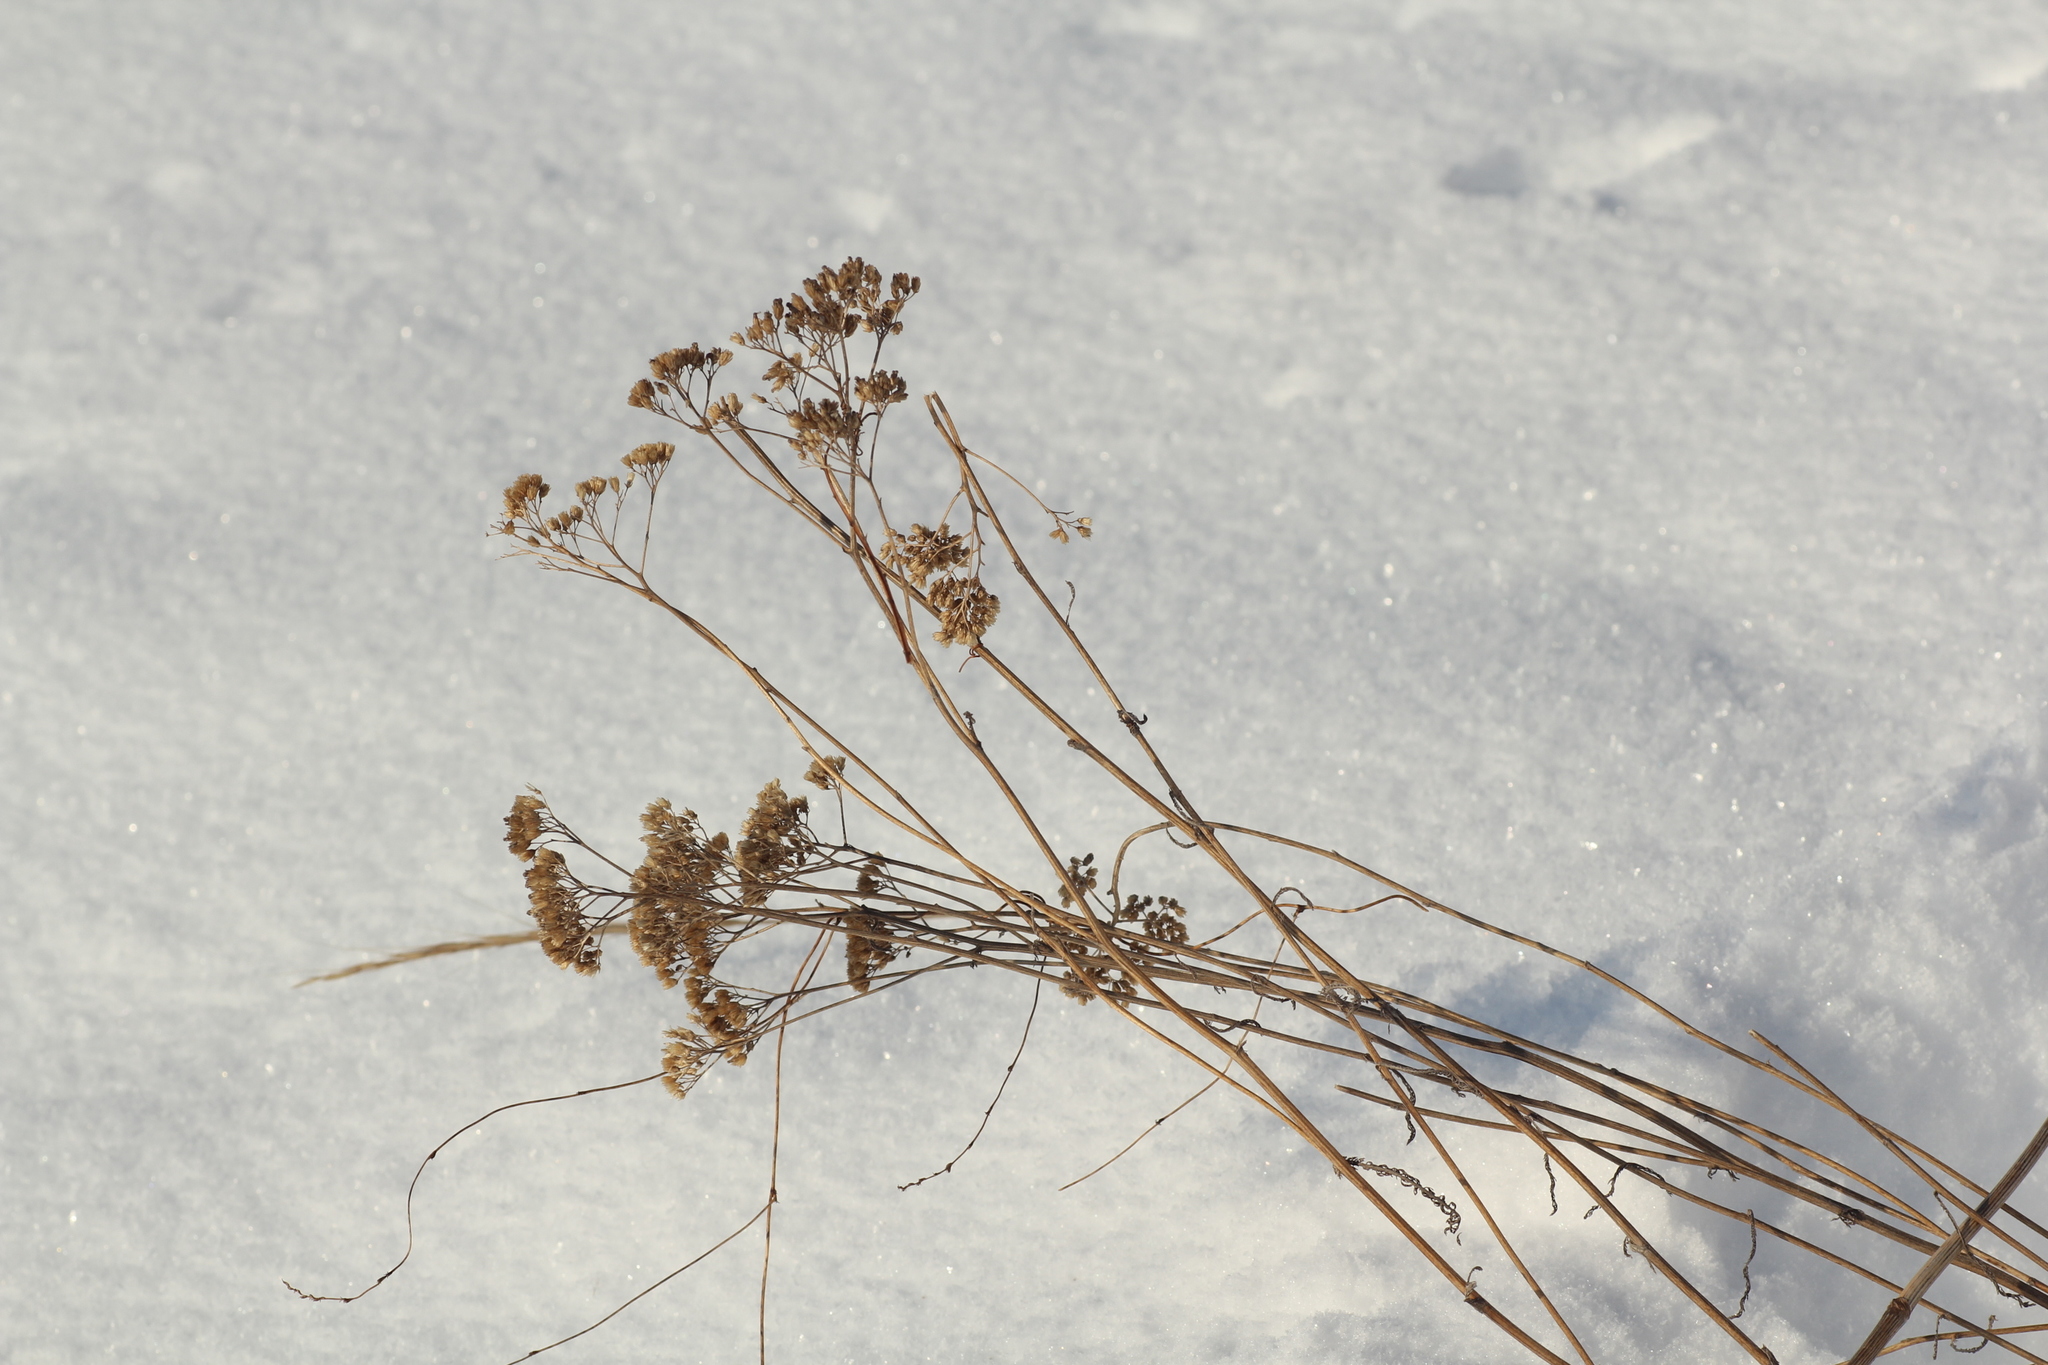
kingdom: Plantae
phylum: Tracheophyta
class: Magnoliopsida
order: Asterales
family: Asteraceae
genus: Achillea
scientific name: Achillea asiatica
